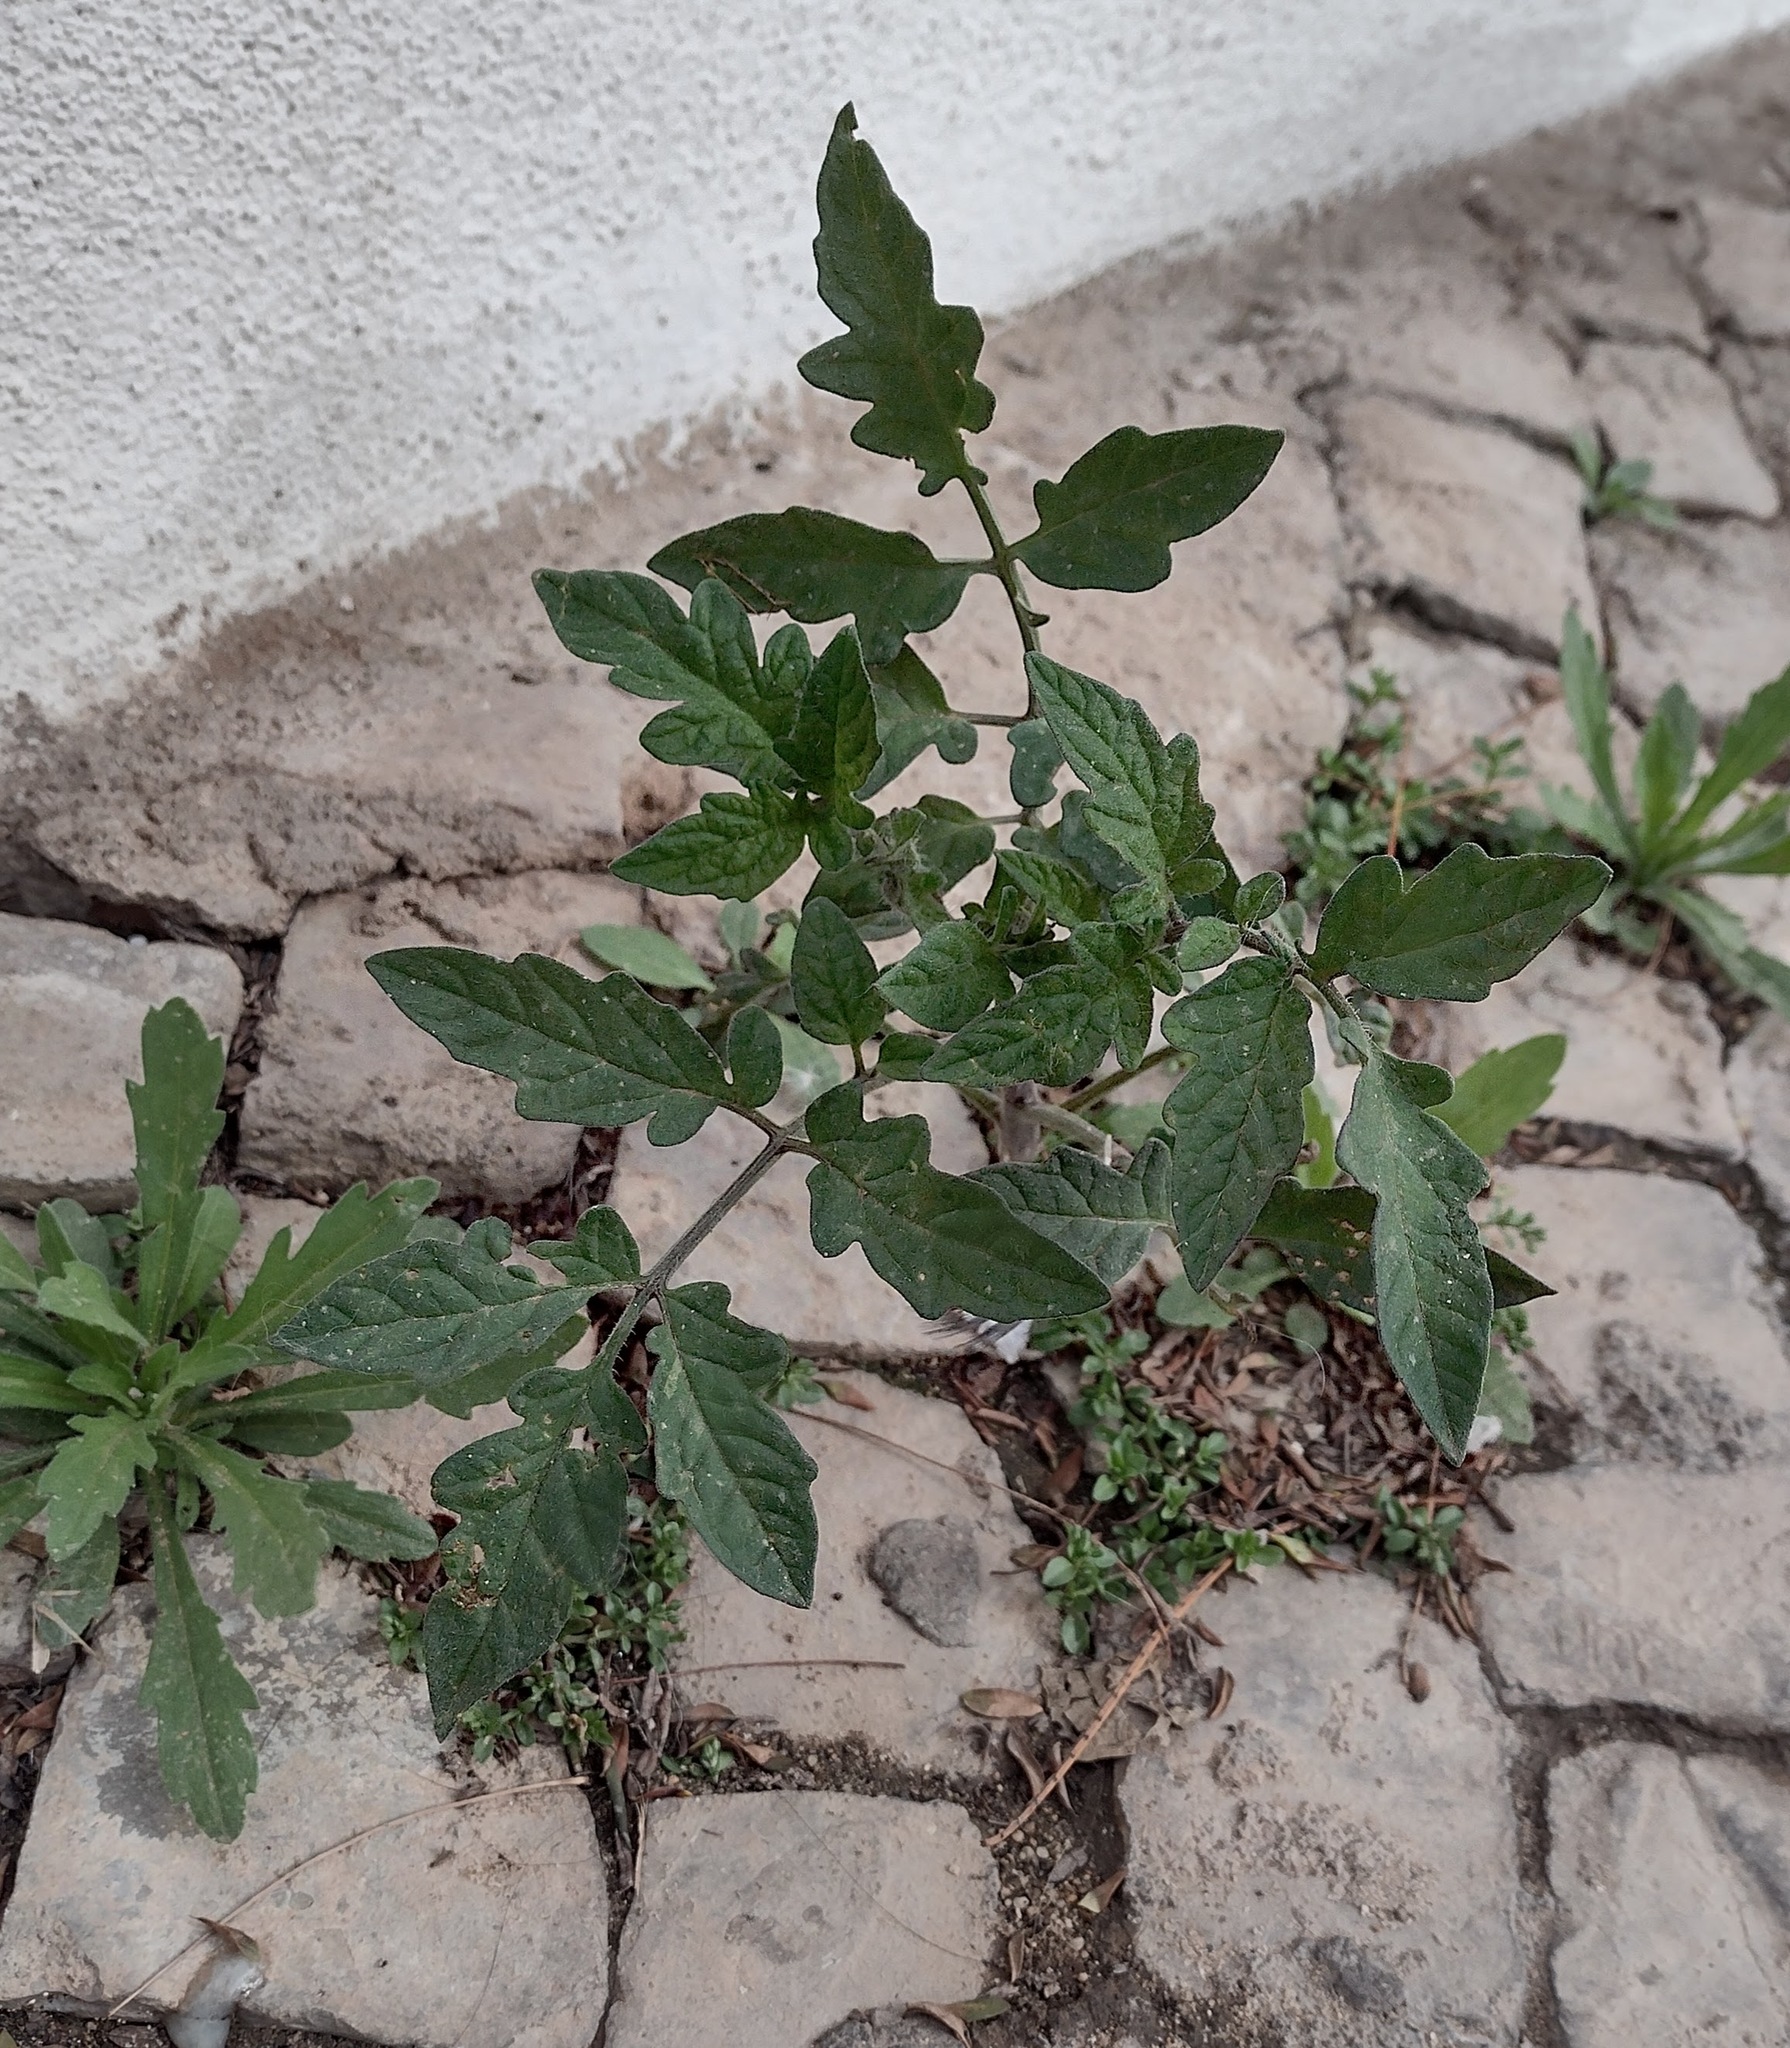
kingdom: Plantae
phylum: Tracheophyta
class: Magnoliopsida
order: Solanales
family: Solanaceae
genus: Solanum
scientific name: Solanum lycopersicum
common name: Garden tomato
